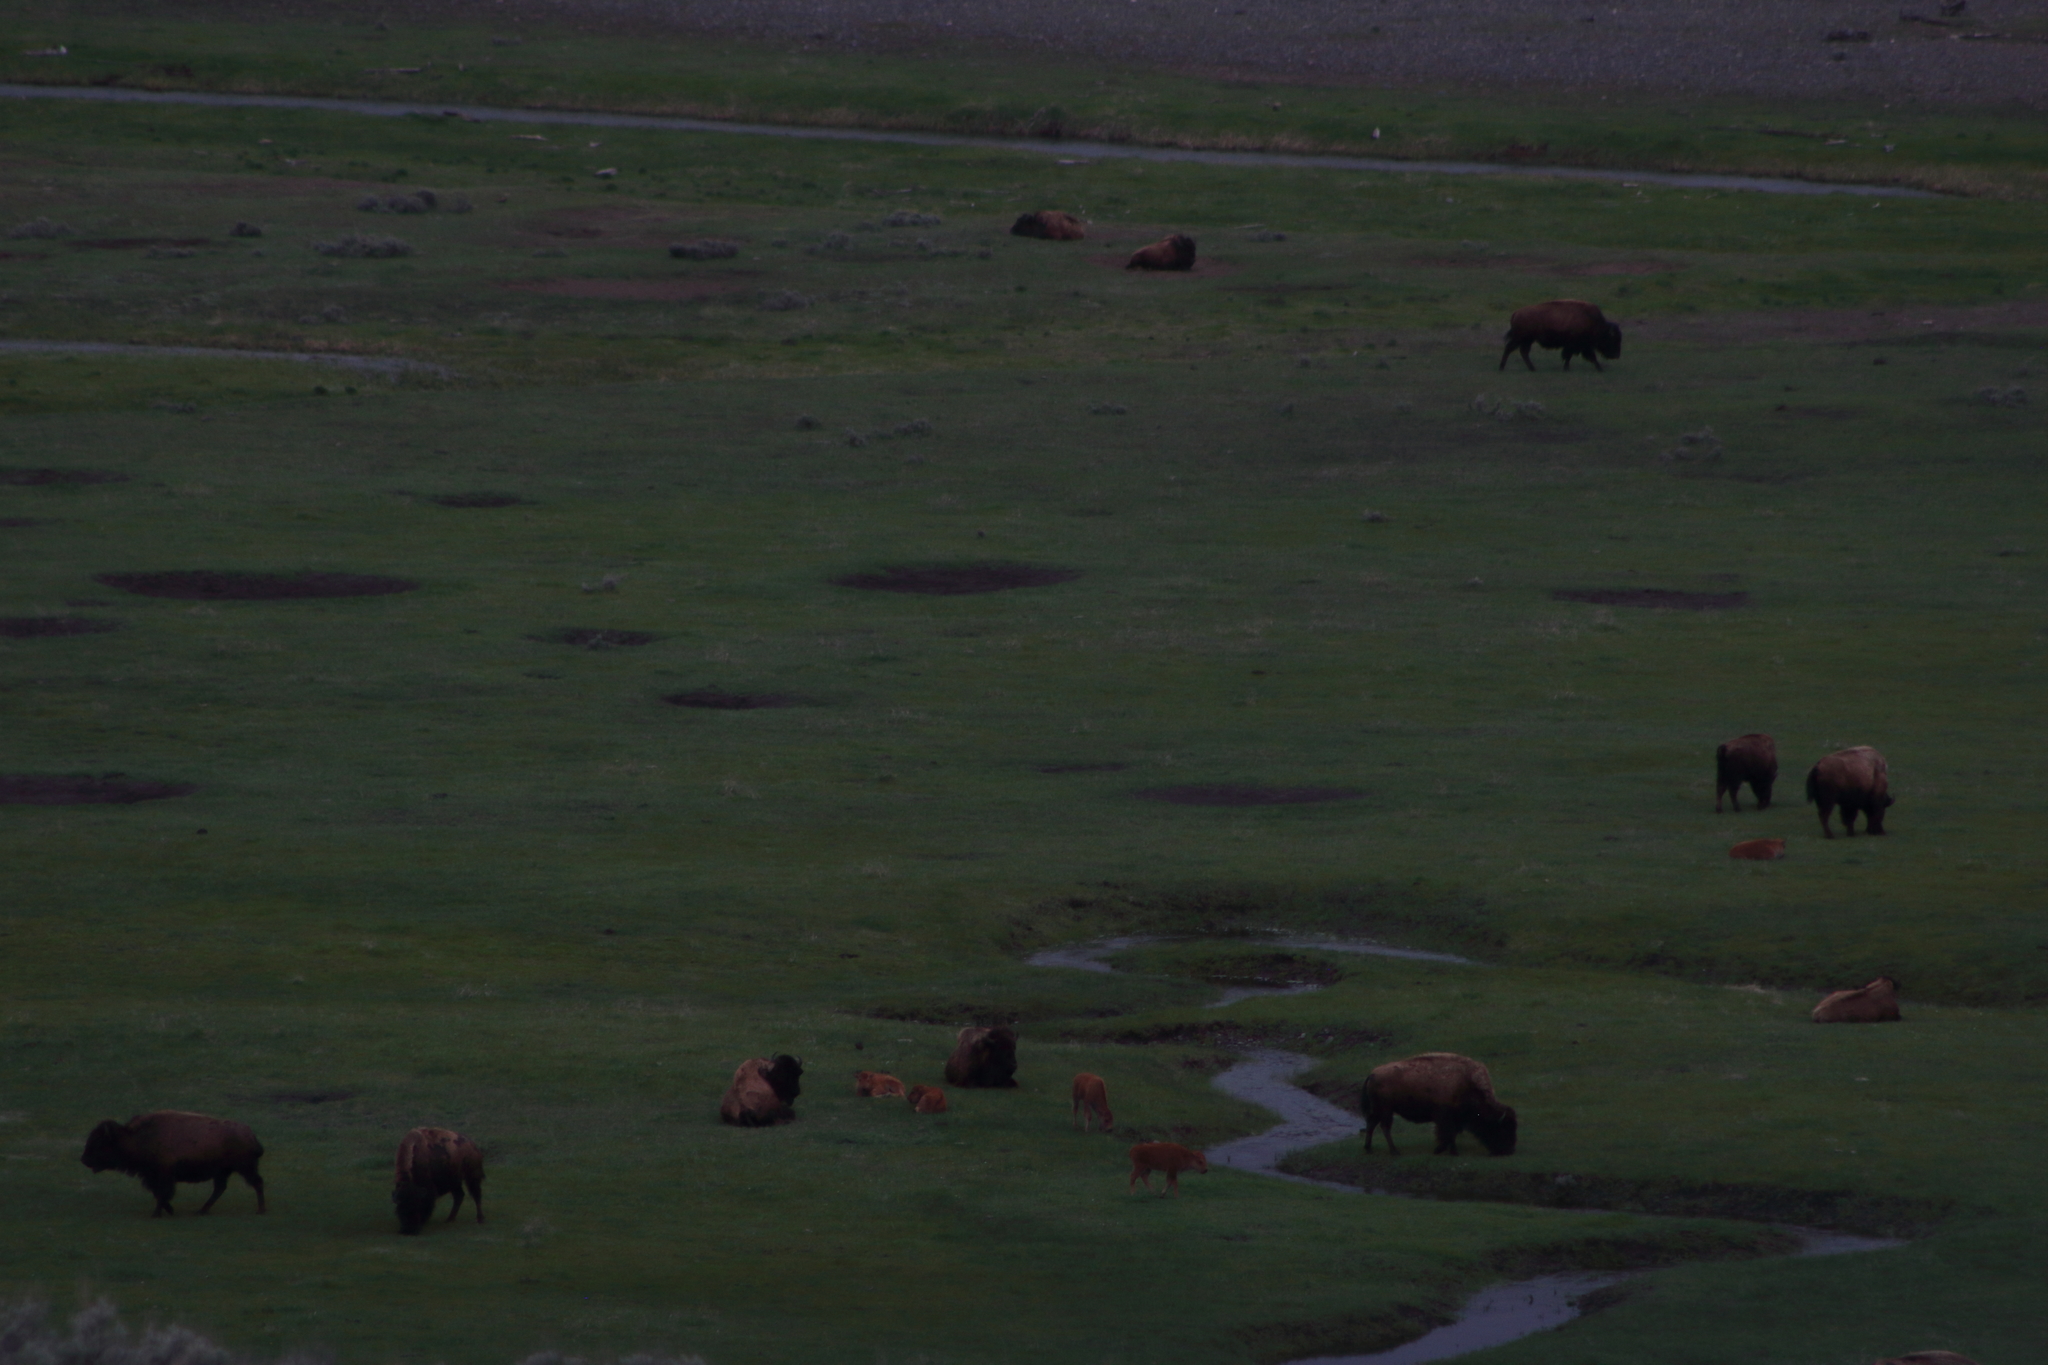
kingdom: Animalia
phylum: Chordata
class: Mammalia
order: Artiodactyla
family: Bovidae
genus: Bison
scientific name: Bison bison
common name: American bison
